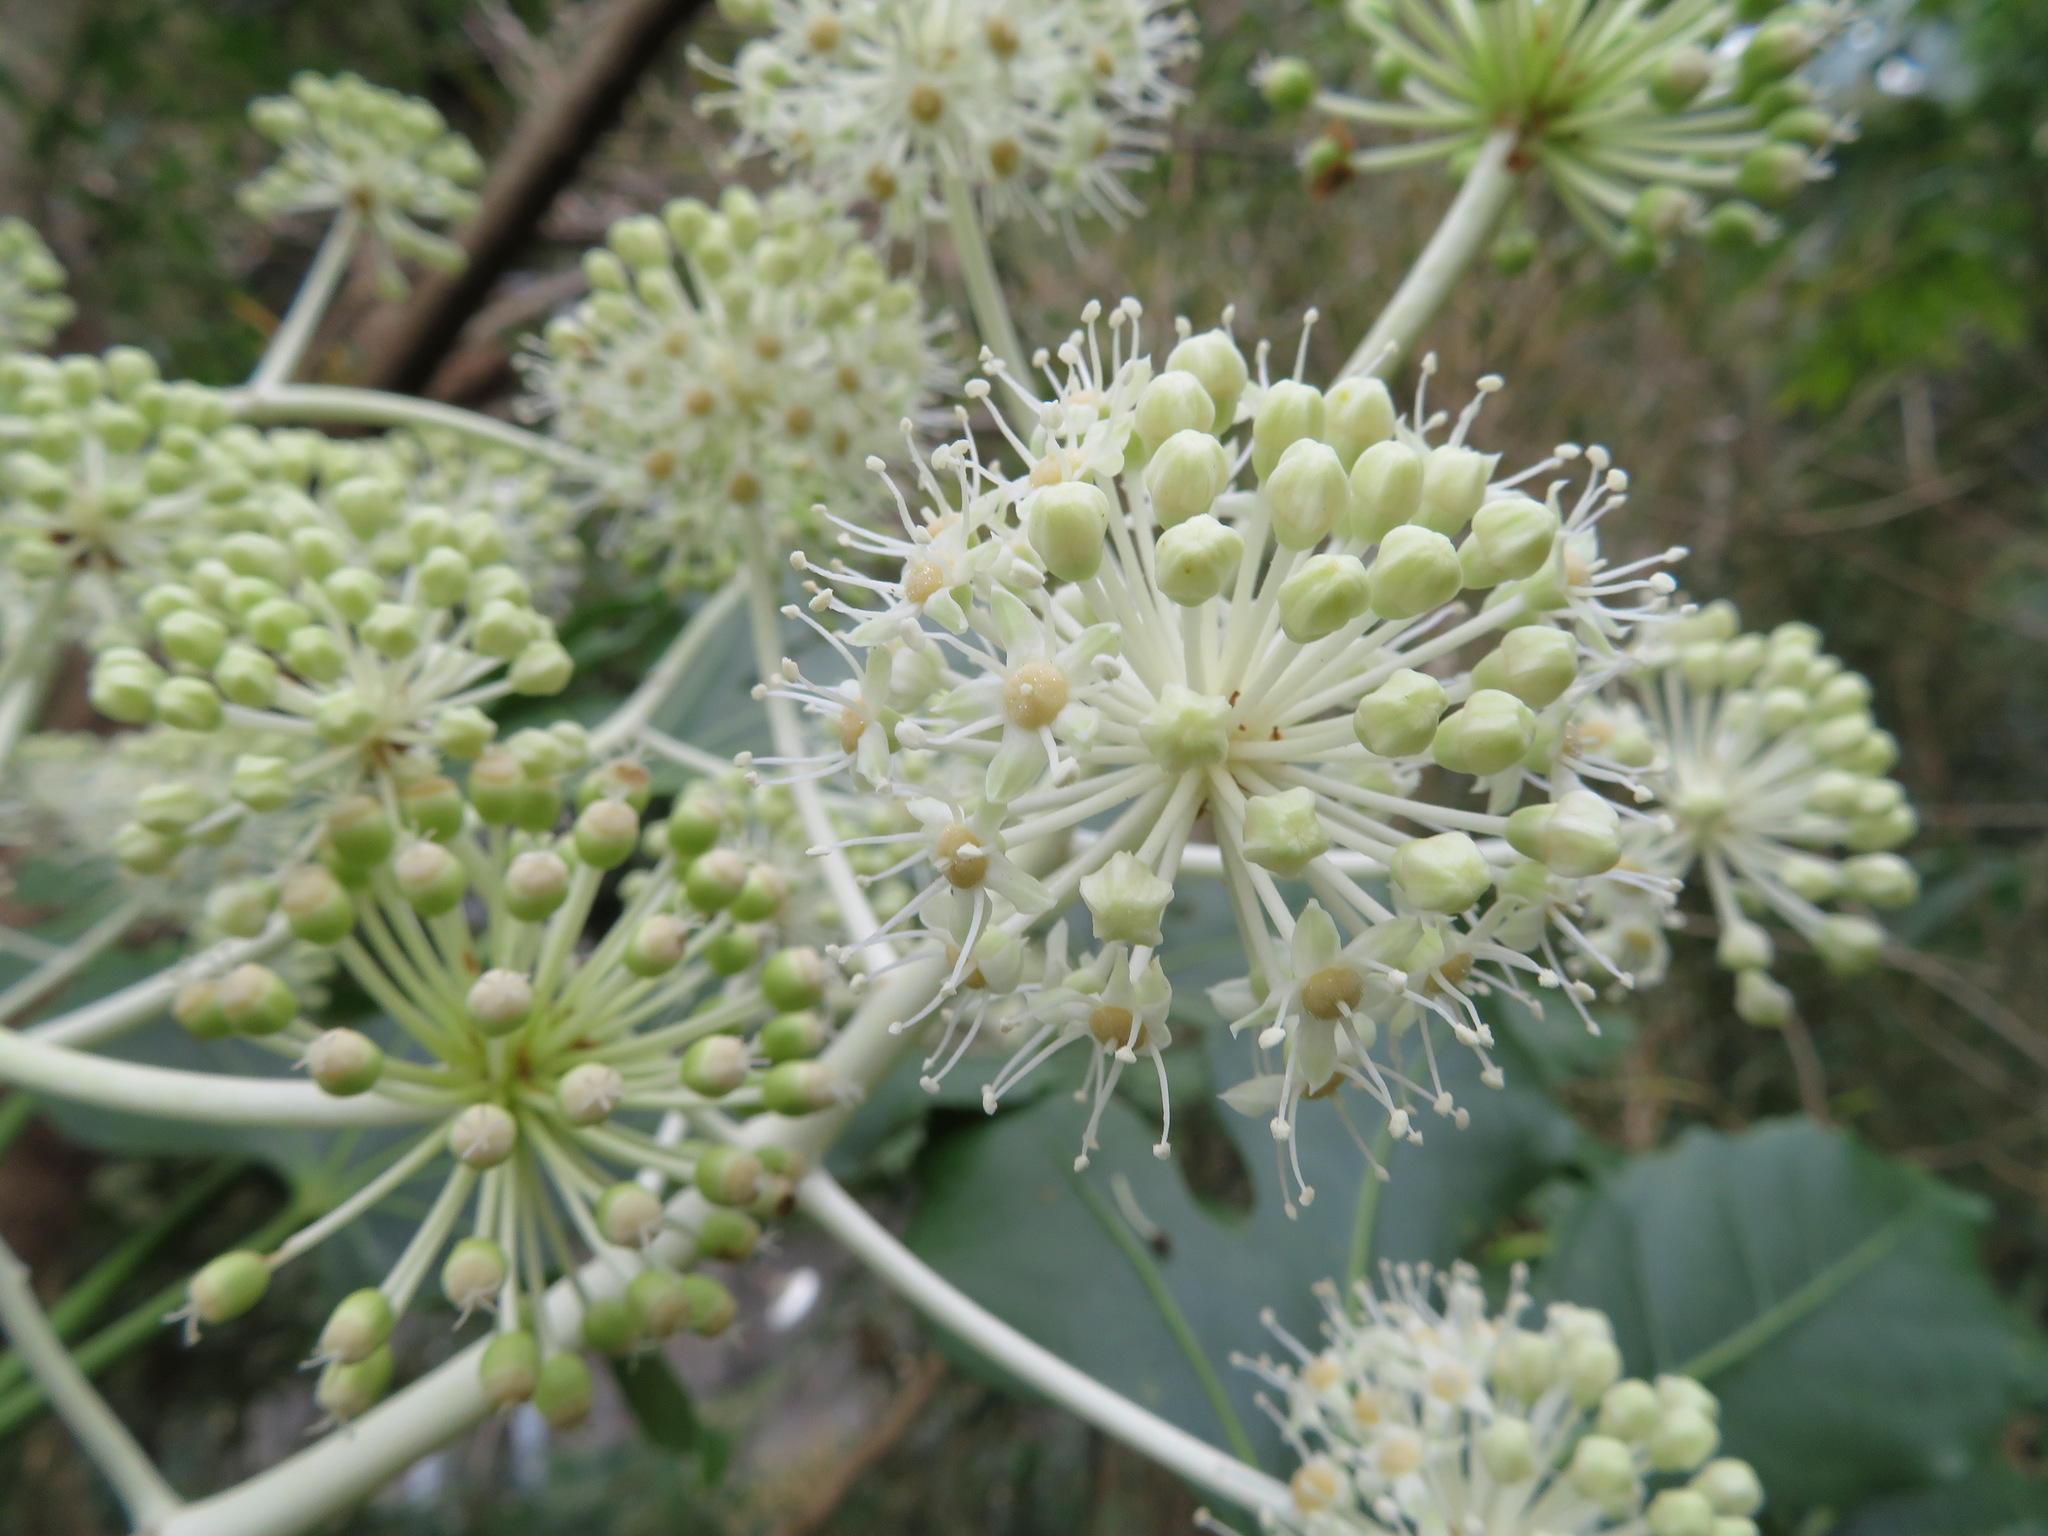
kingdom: Plantae
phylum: Tracheophyta
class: Magnoliopsida
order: Apiales
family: Araliaceae
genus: Fatsia
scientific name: Fatsia japonica
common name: Fatsia
